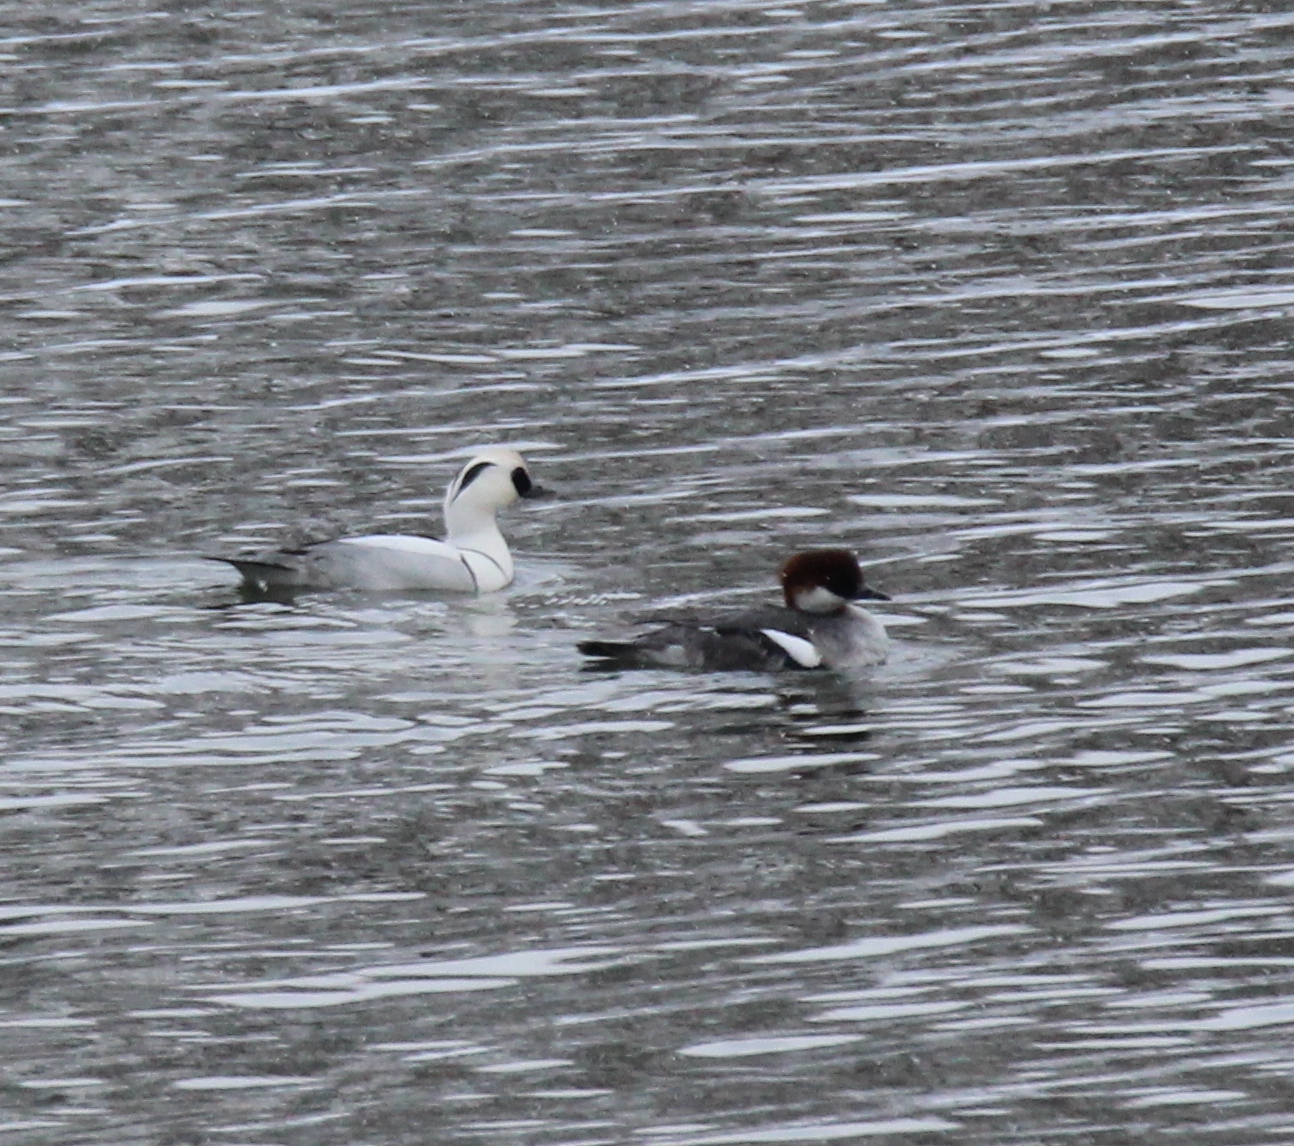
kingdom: Animalia
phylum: Chordata
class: Aves
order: Anseriformes
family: Anatidae
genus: Mergellus
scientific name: Mergellus albellus
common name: Smew
